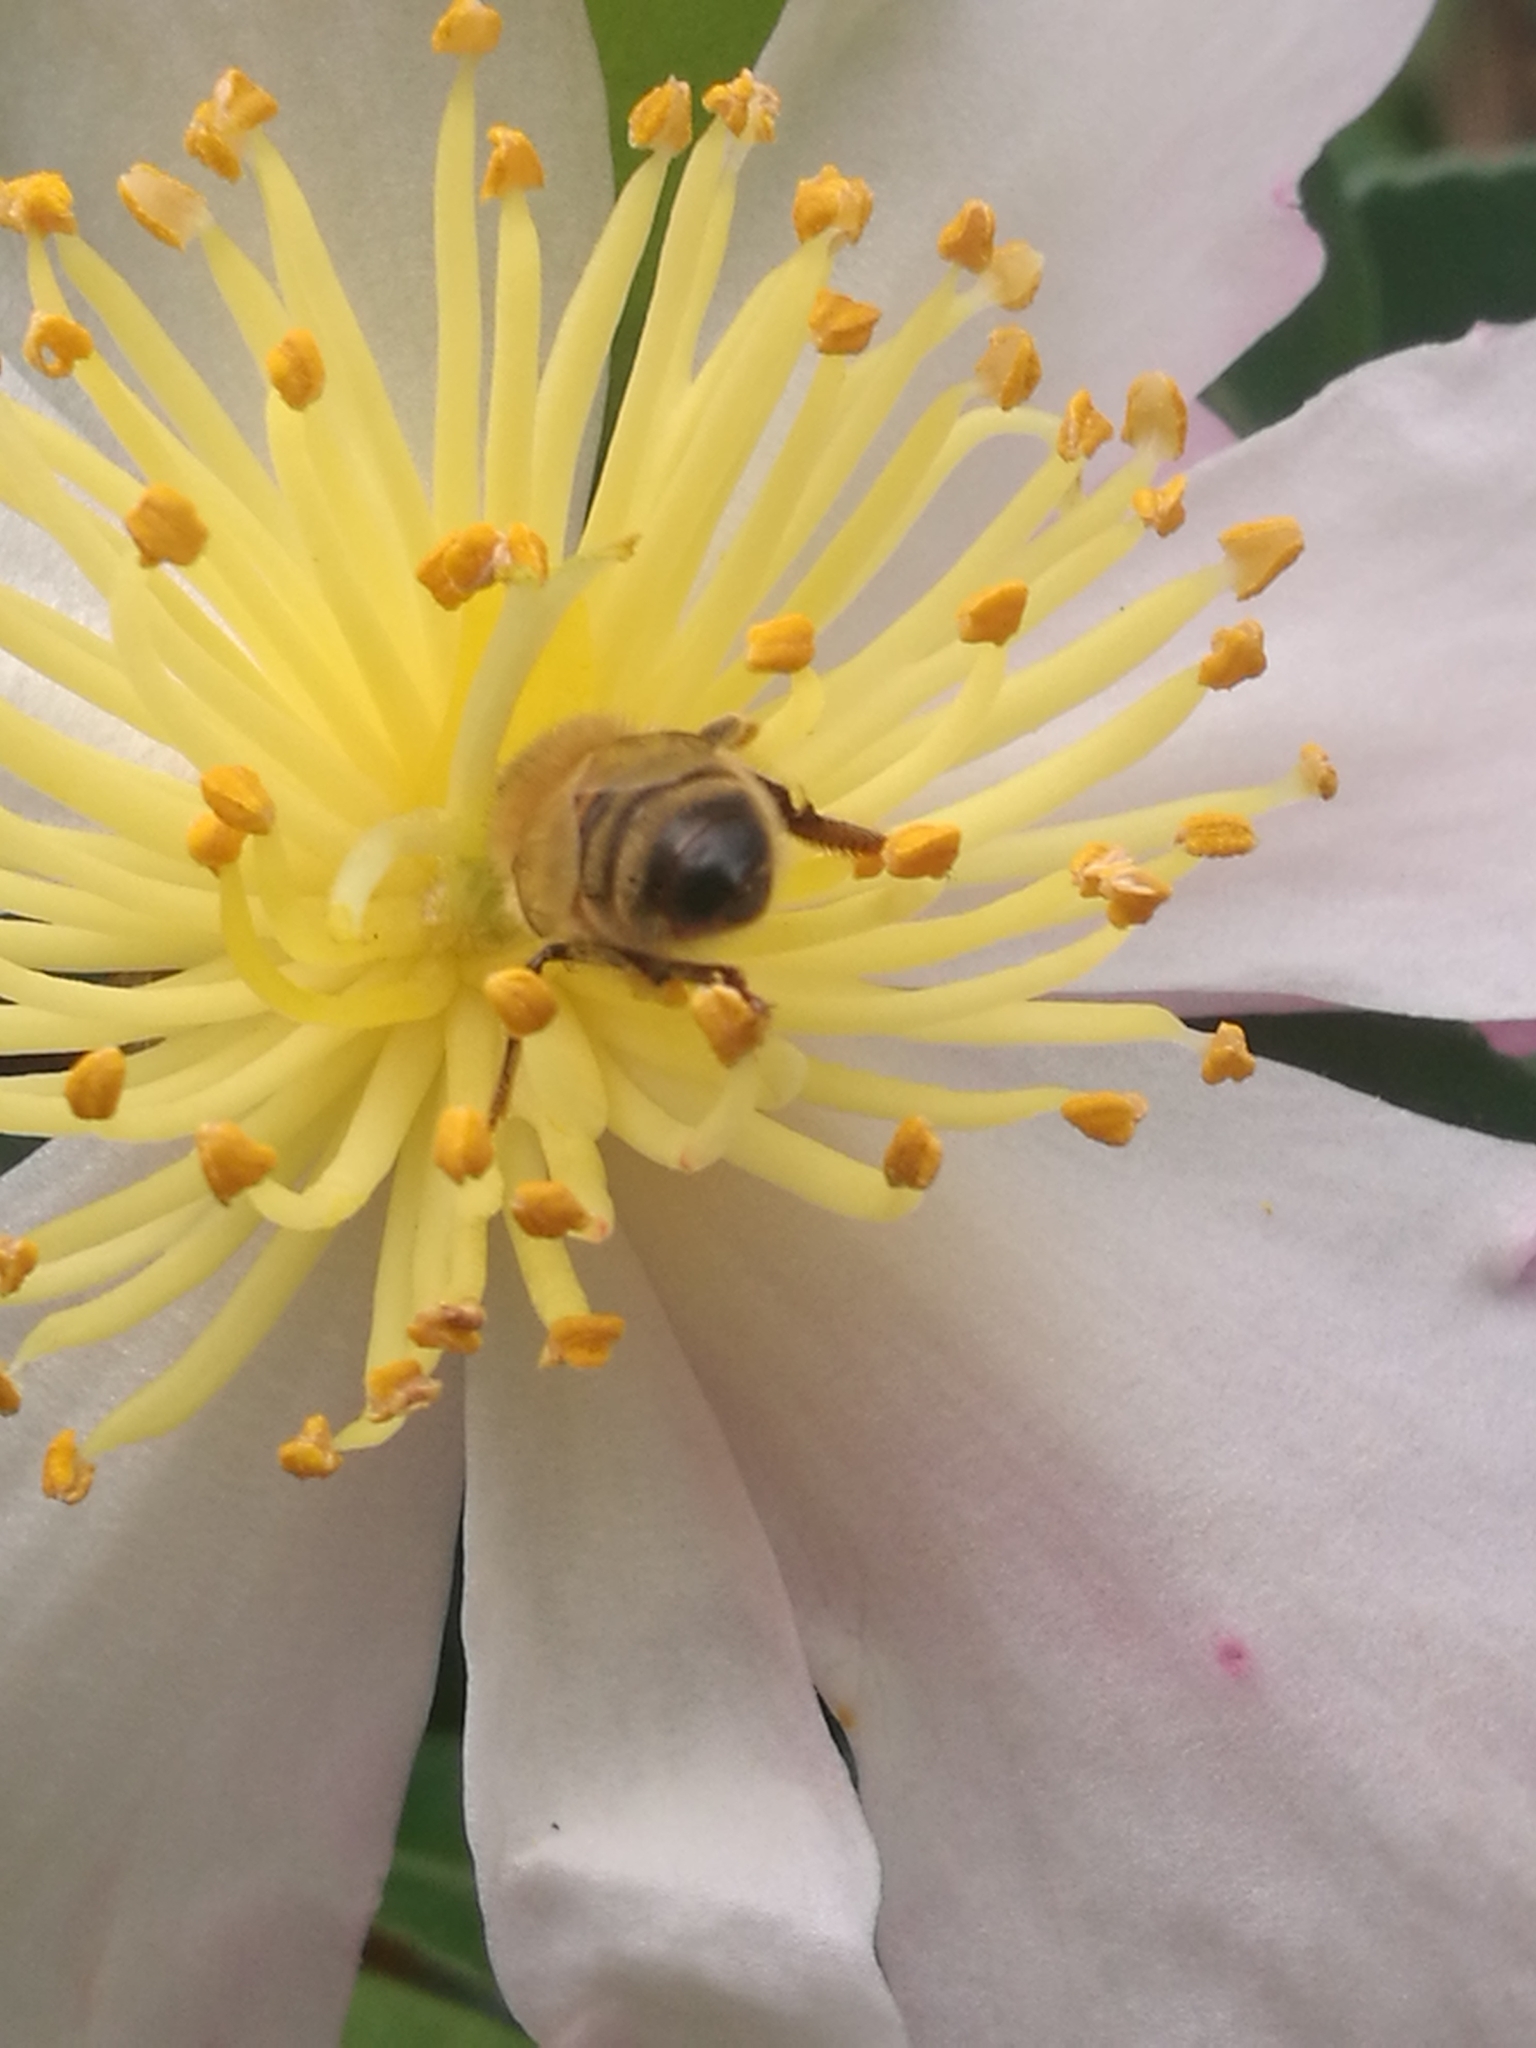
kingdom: Animalia
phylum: Arthropoda
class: Insecta
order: Hymenoptera
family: Apidae
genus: Apis
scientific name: Apis mellifera
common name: Honey bee
